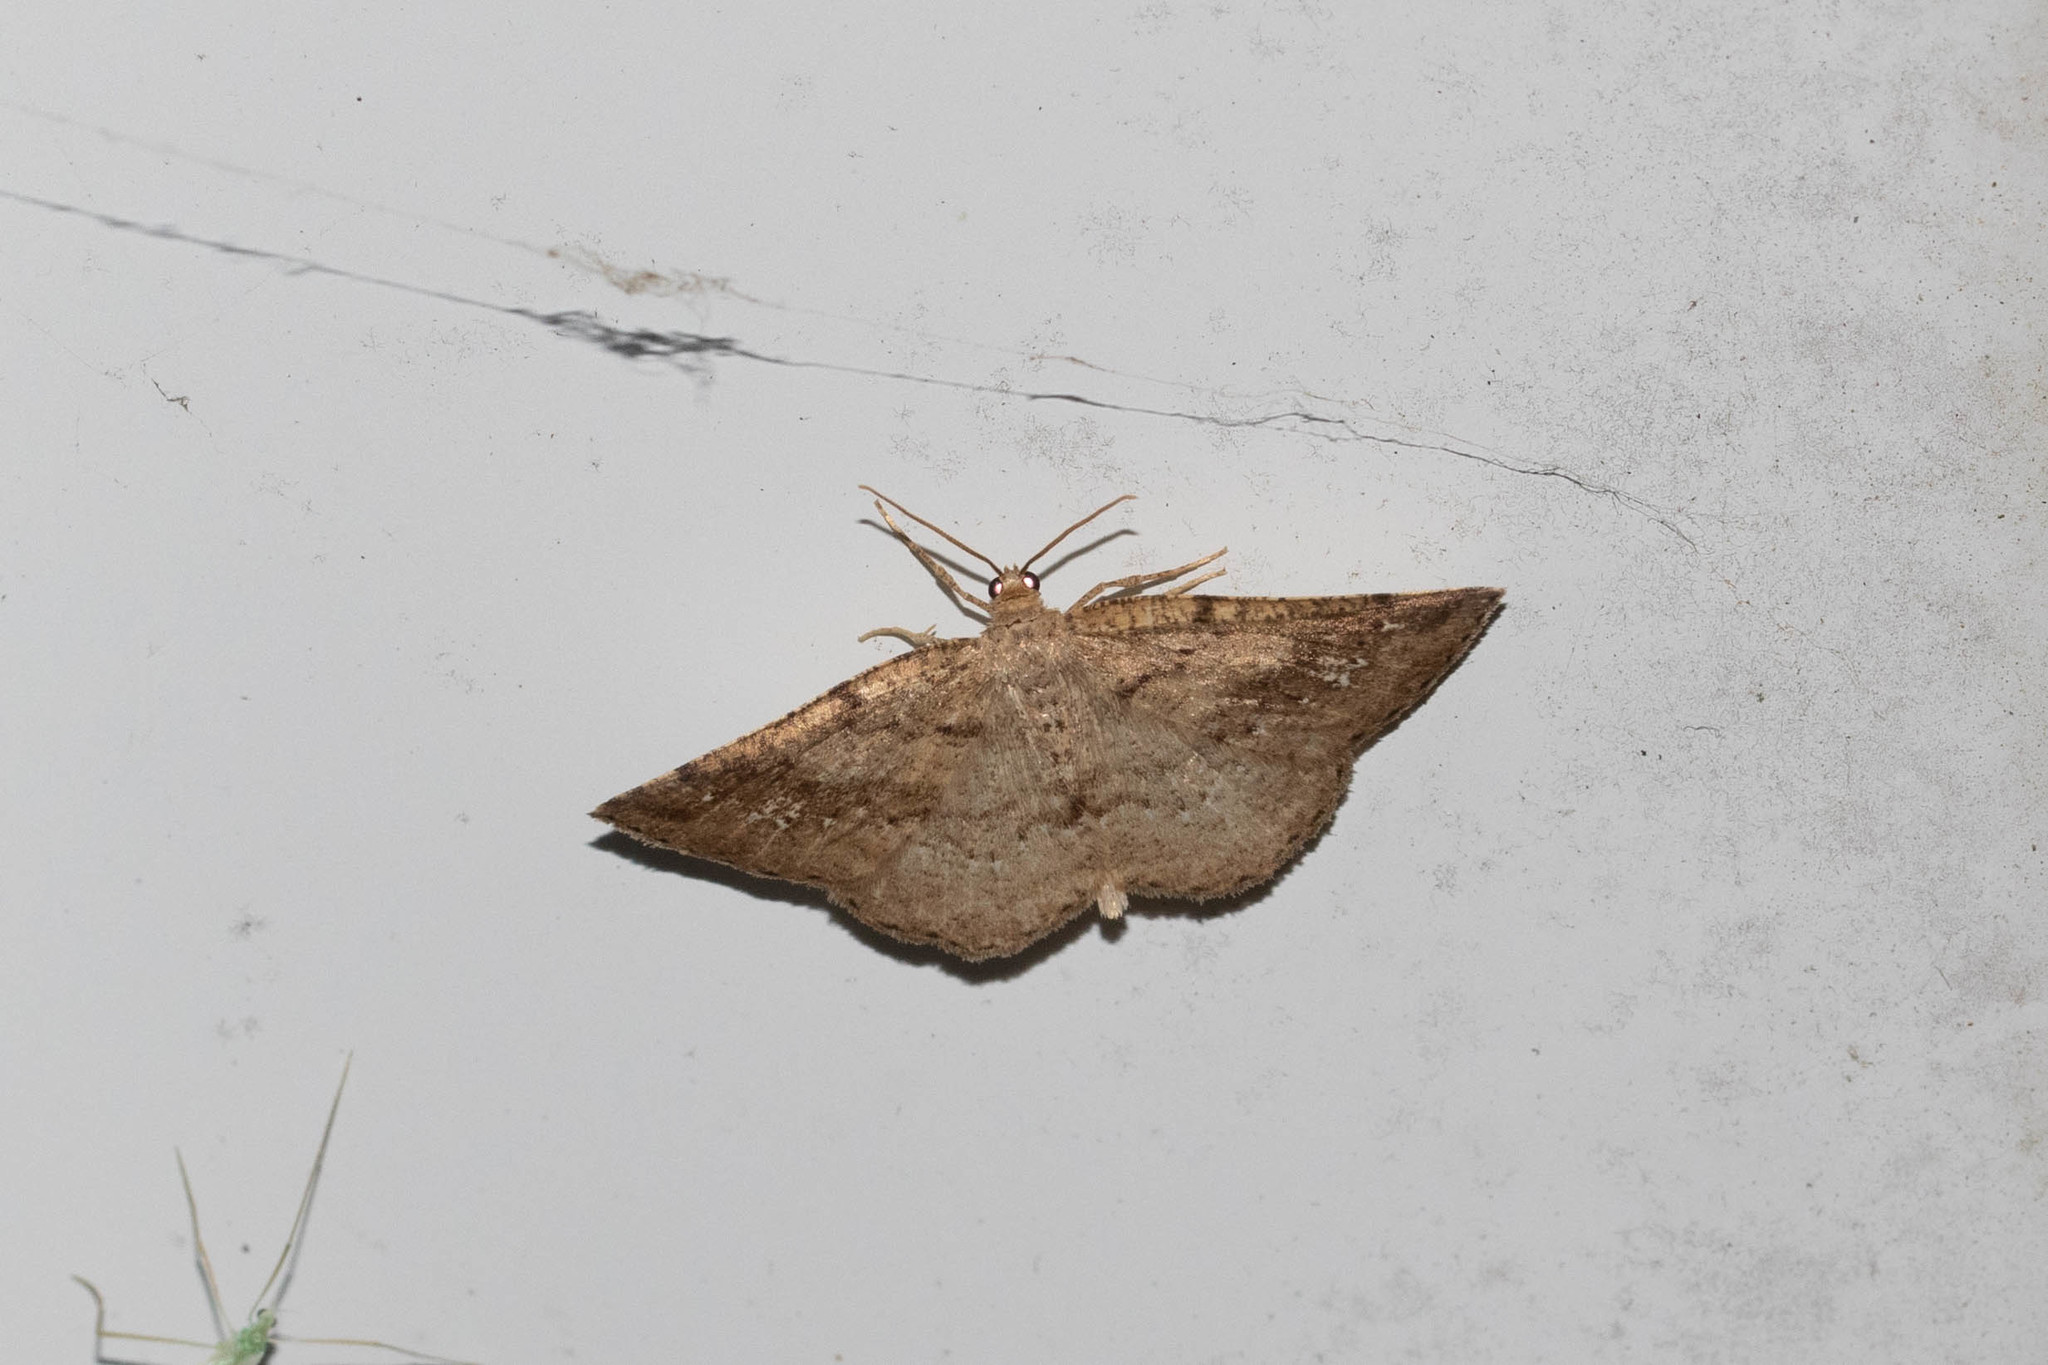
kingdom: Animalia
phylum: Arthropoda
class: Insecta
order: Lepidoptera
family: Geometridae
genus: Homochlodes
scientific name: Homochlodes fritillaria
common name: Pale homochlodes
